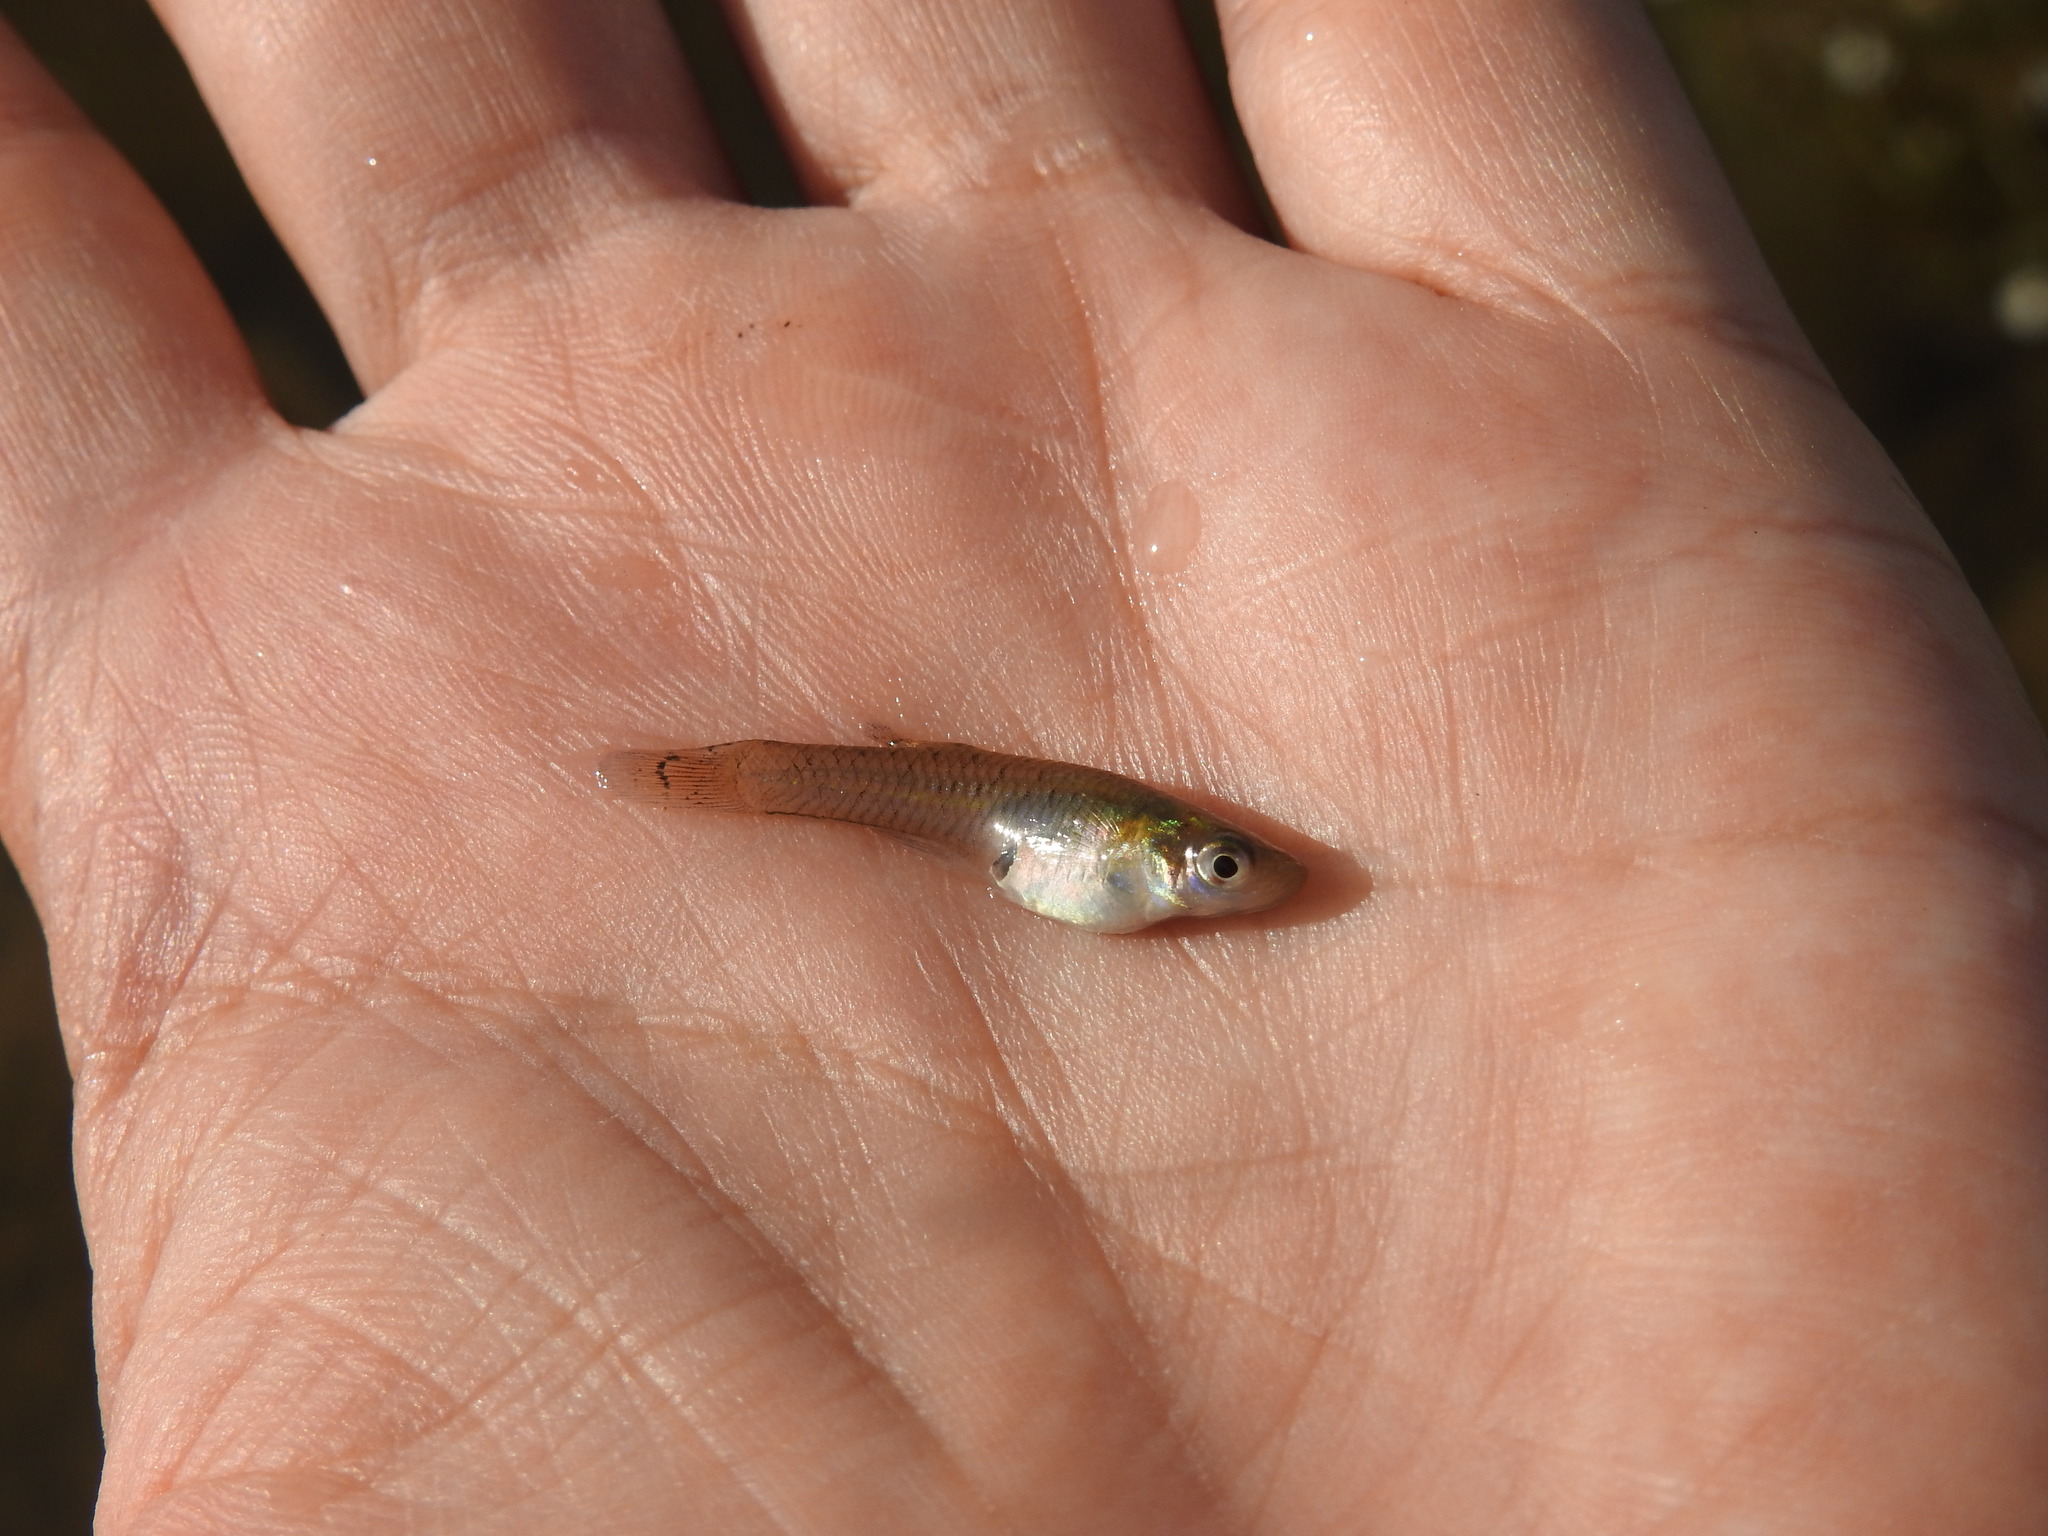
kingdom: Animalia
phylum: Chordata
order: Cyprinodontiformes
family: Poeciliidae
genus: Gambusia
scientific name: Gambusia holbrooki
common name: Eastern mosquitofish
